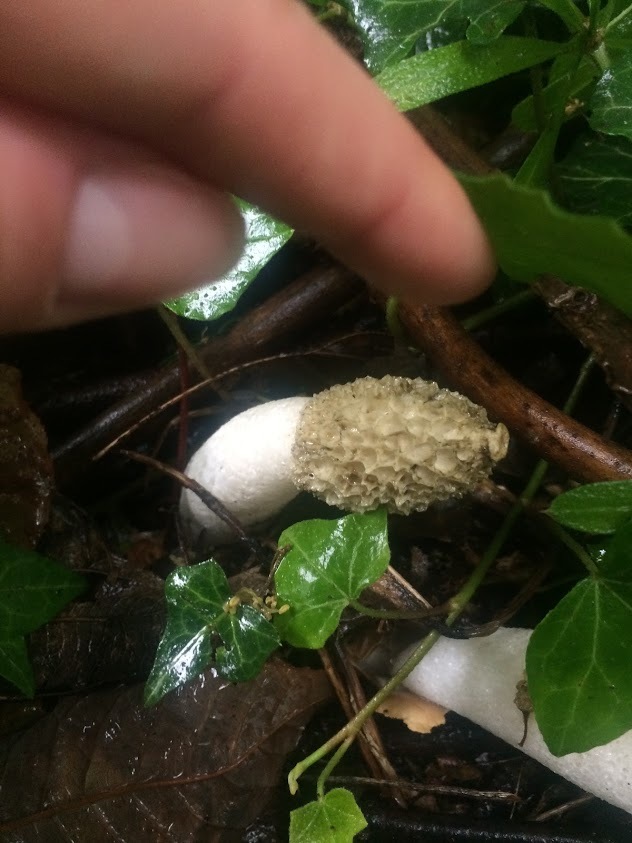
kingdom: Fungi
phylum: Basidiomycota
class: Agaricomycetes
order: Phallales
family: Phallaceae
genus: Phallus
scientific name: Phallus impudicus
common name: Common stinkhorn
